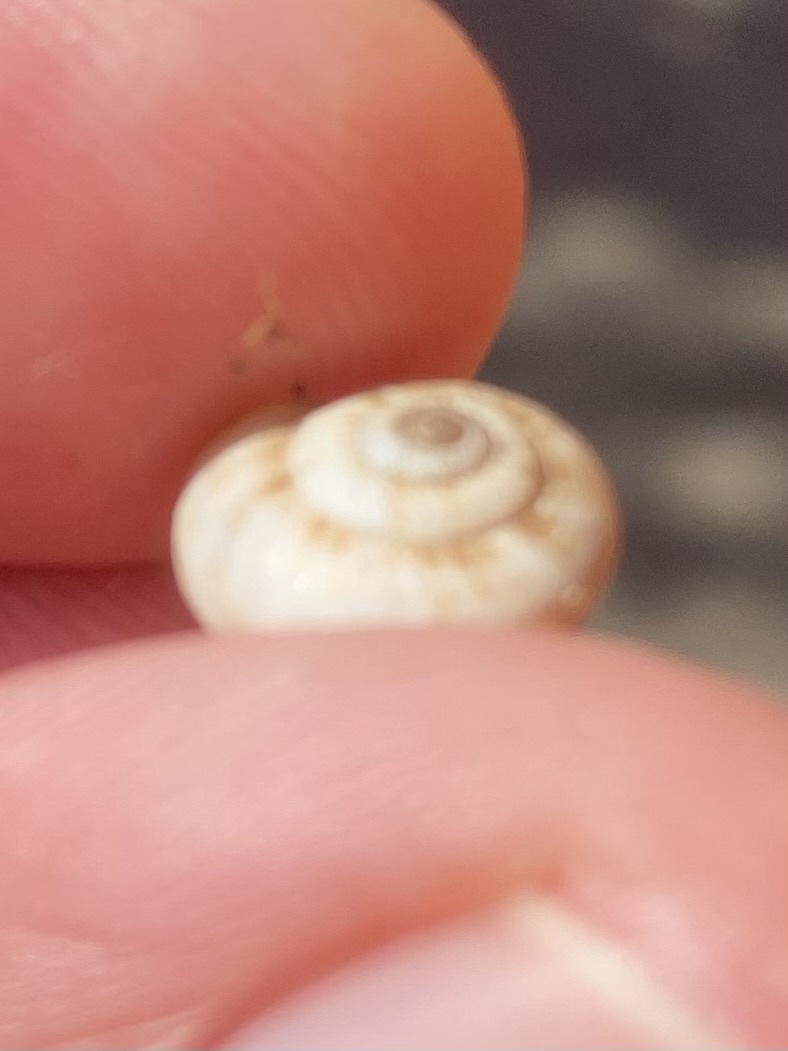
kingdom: Animalia
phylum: Mollusca
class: Gastropoda
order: Stylommatophora
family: Geomitridae
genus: Xeropicta
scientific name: Xeropicta derbentina
